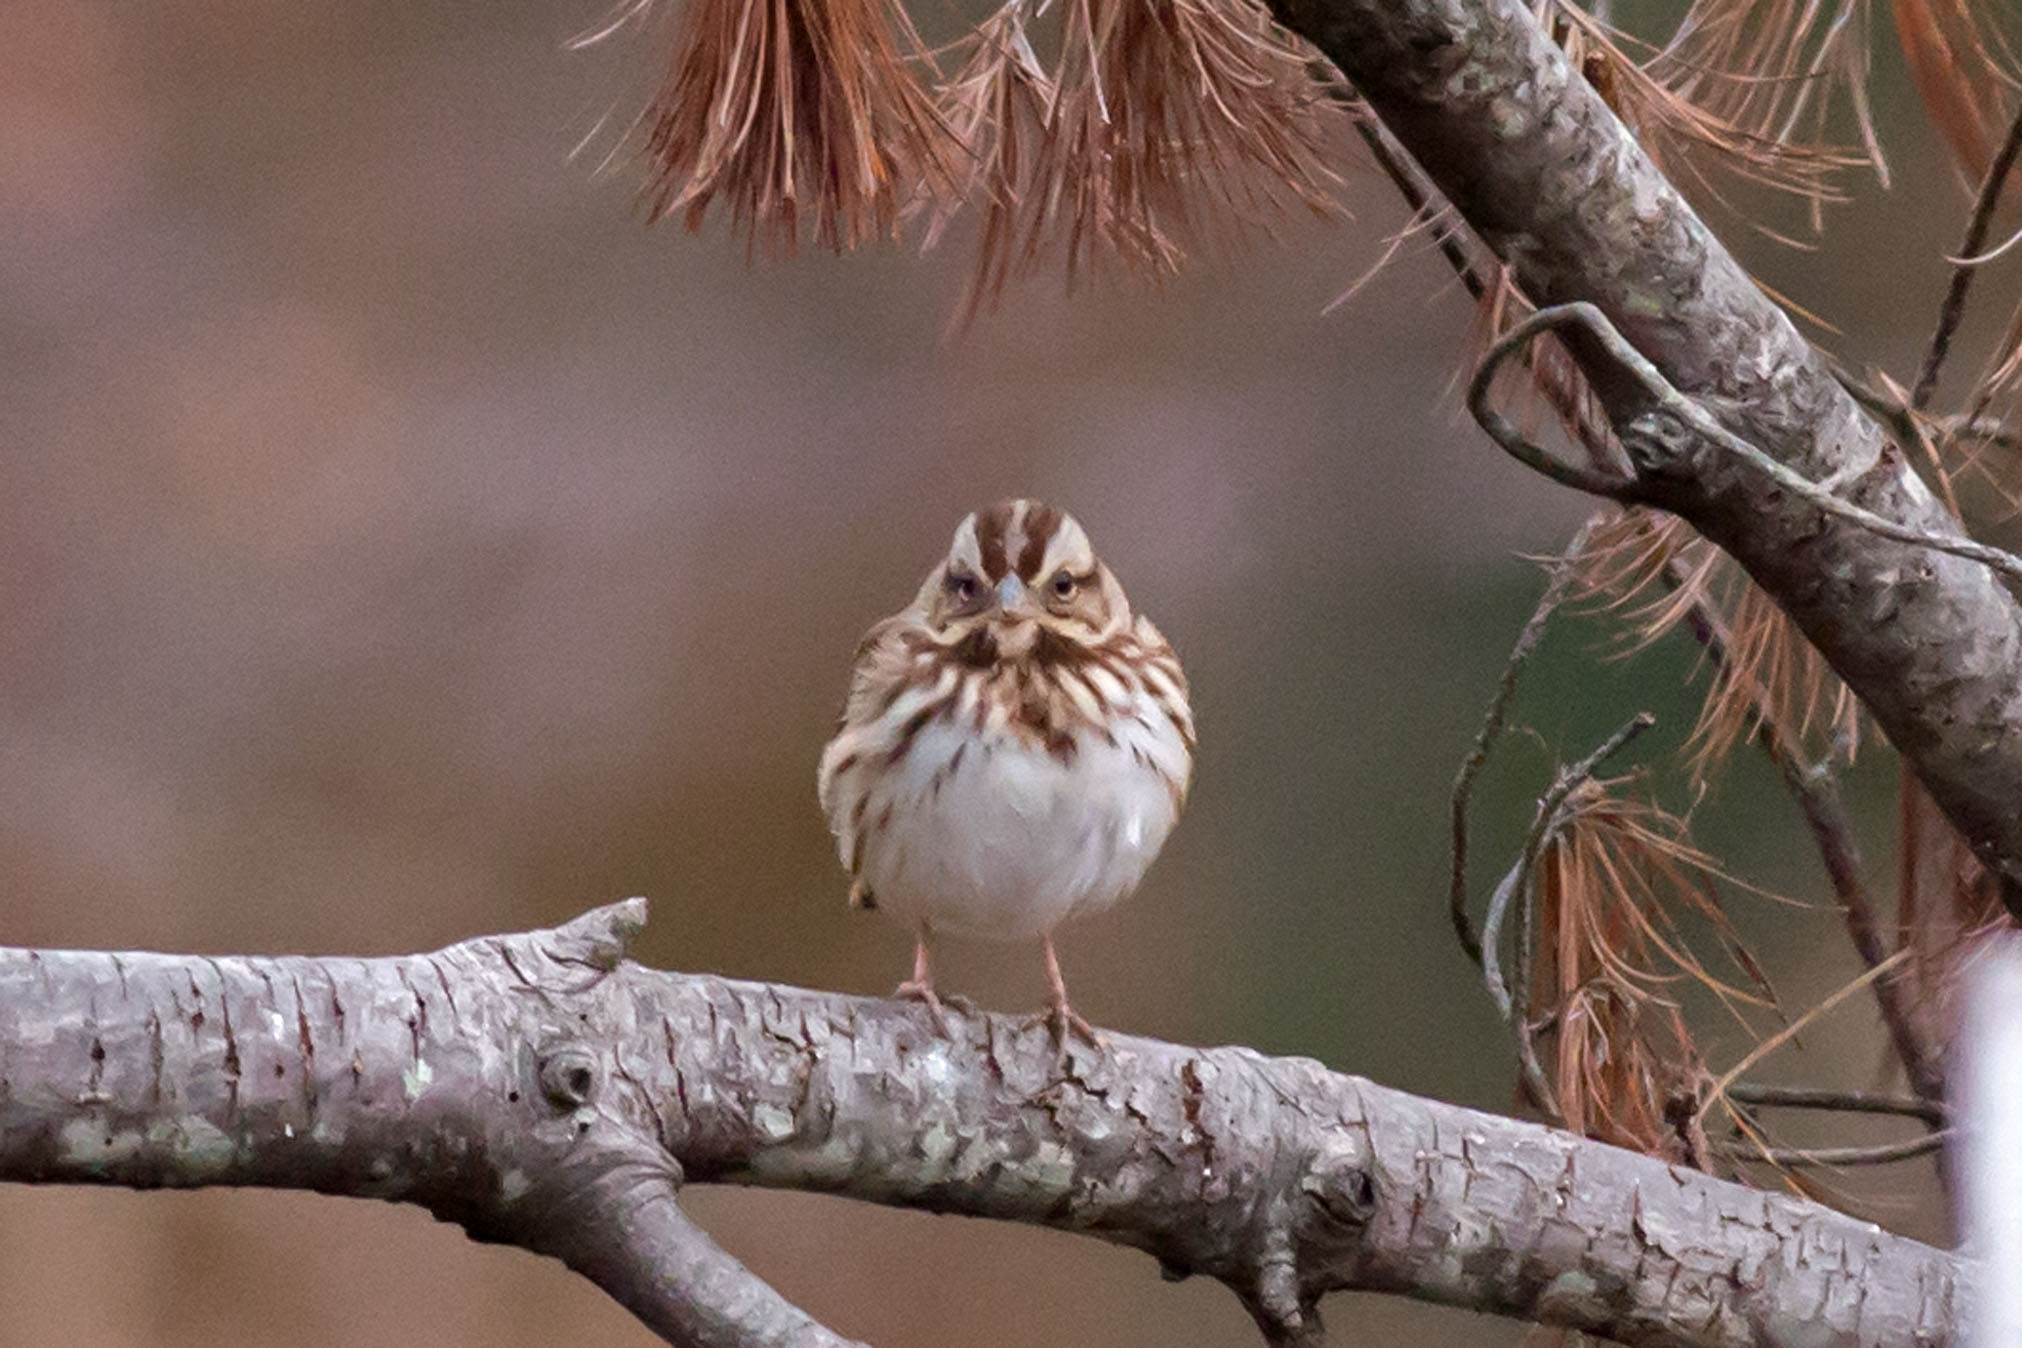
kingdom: Animalia
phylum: Chordata
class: Aves
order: Passeriformes
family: Passerellidae
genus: Melospiza
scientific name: Melospiza melodia
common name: Song sparrow
